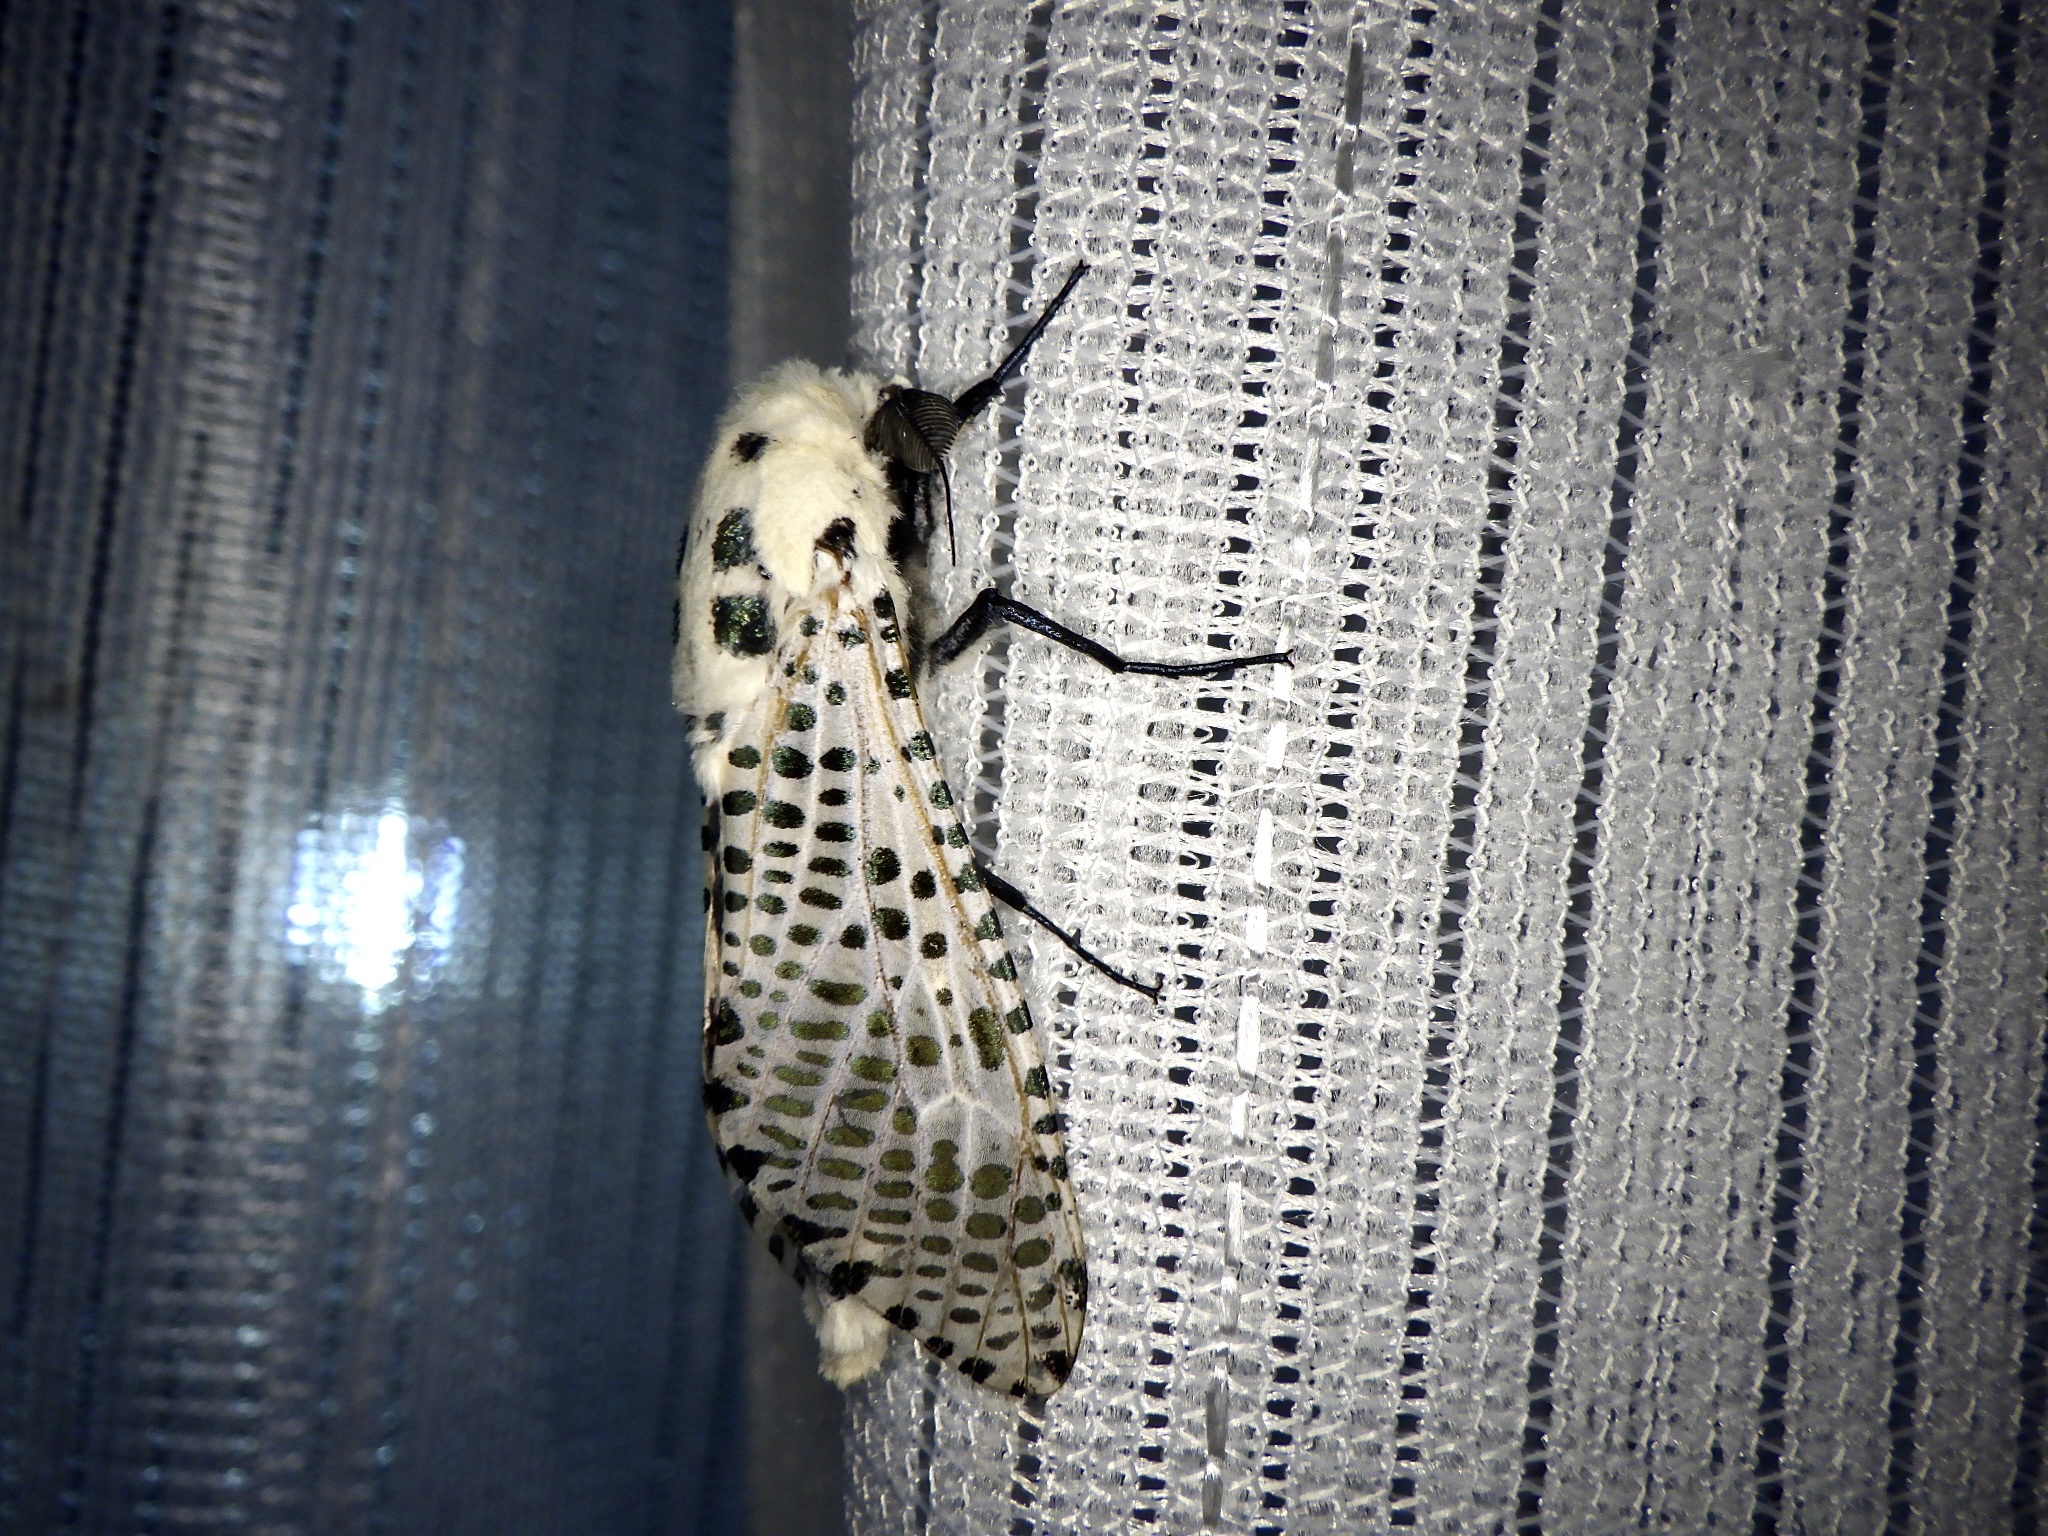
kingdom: Animalia
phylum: Arthropoda
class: Insecta
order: Lepidoptera
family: Cossidae
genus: Zeuzera
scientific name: Zeuzera multistrigata
